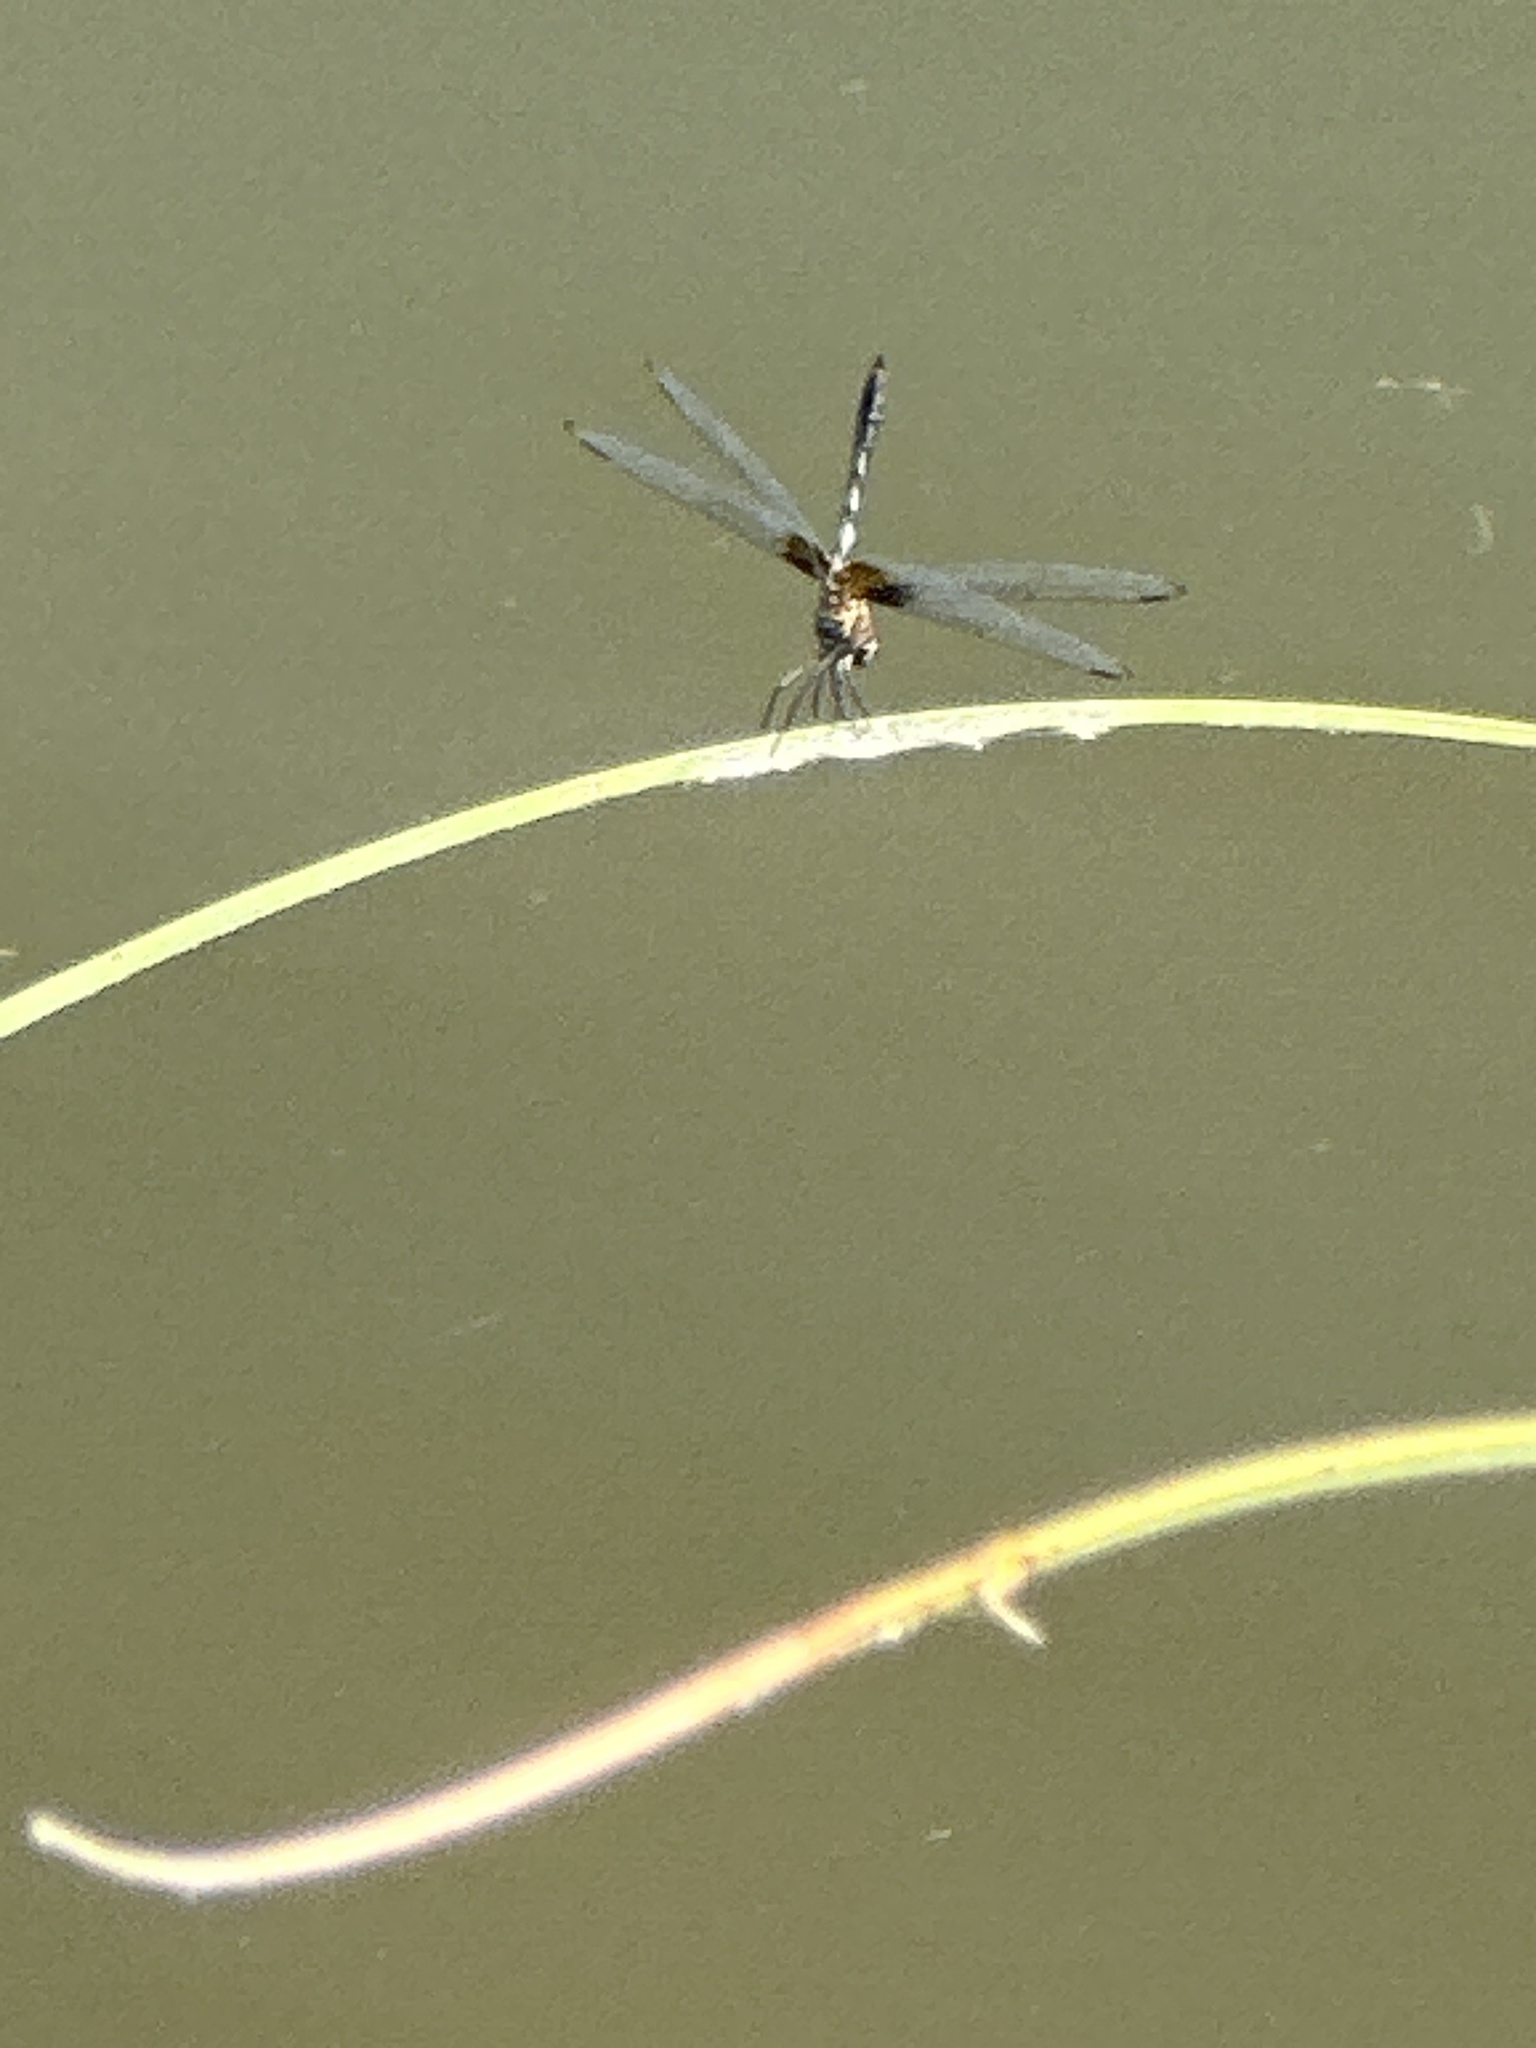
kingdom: Animalia
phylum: Arthropoda
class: Insecta
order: Odonata
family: Libellulidae
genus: Dythemis
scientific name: Dythemis fugax
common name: Checkered setwing
